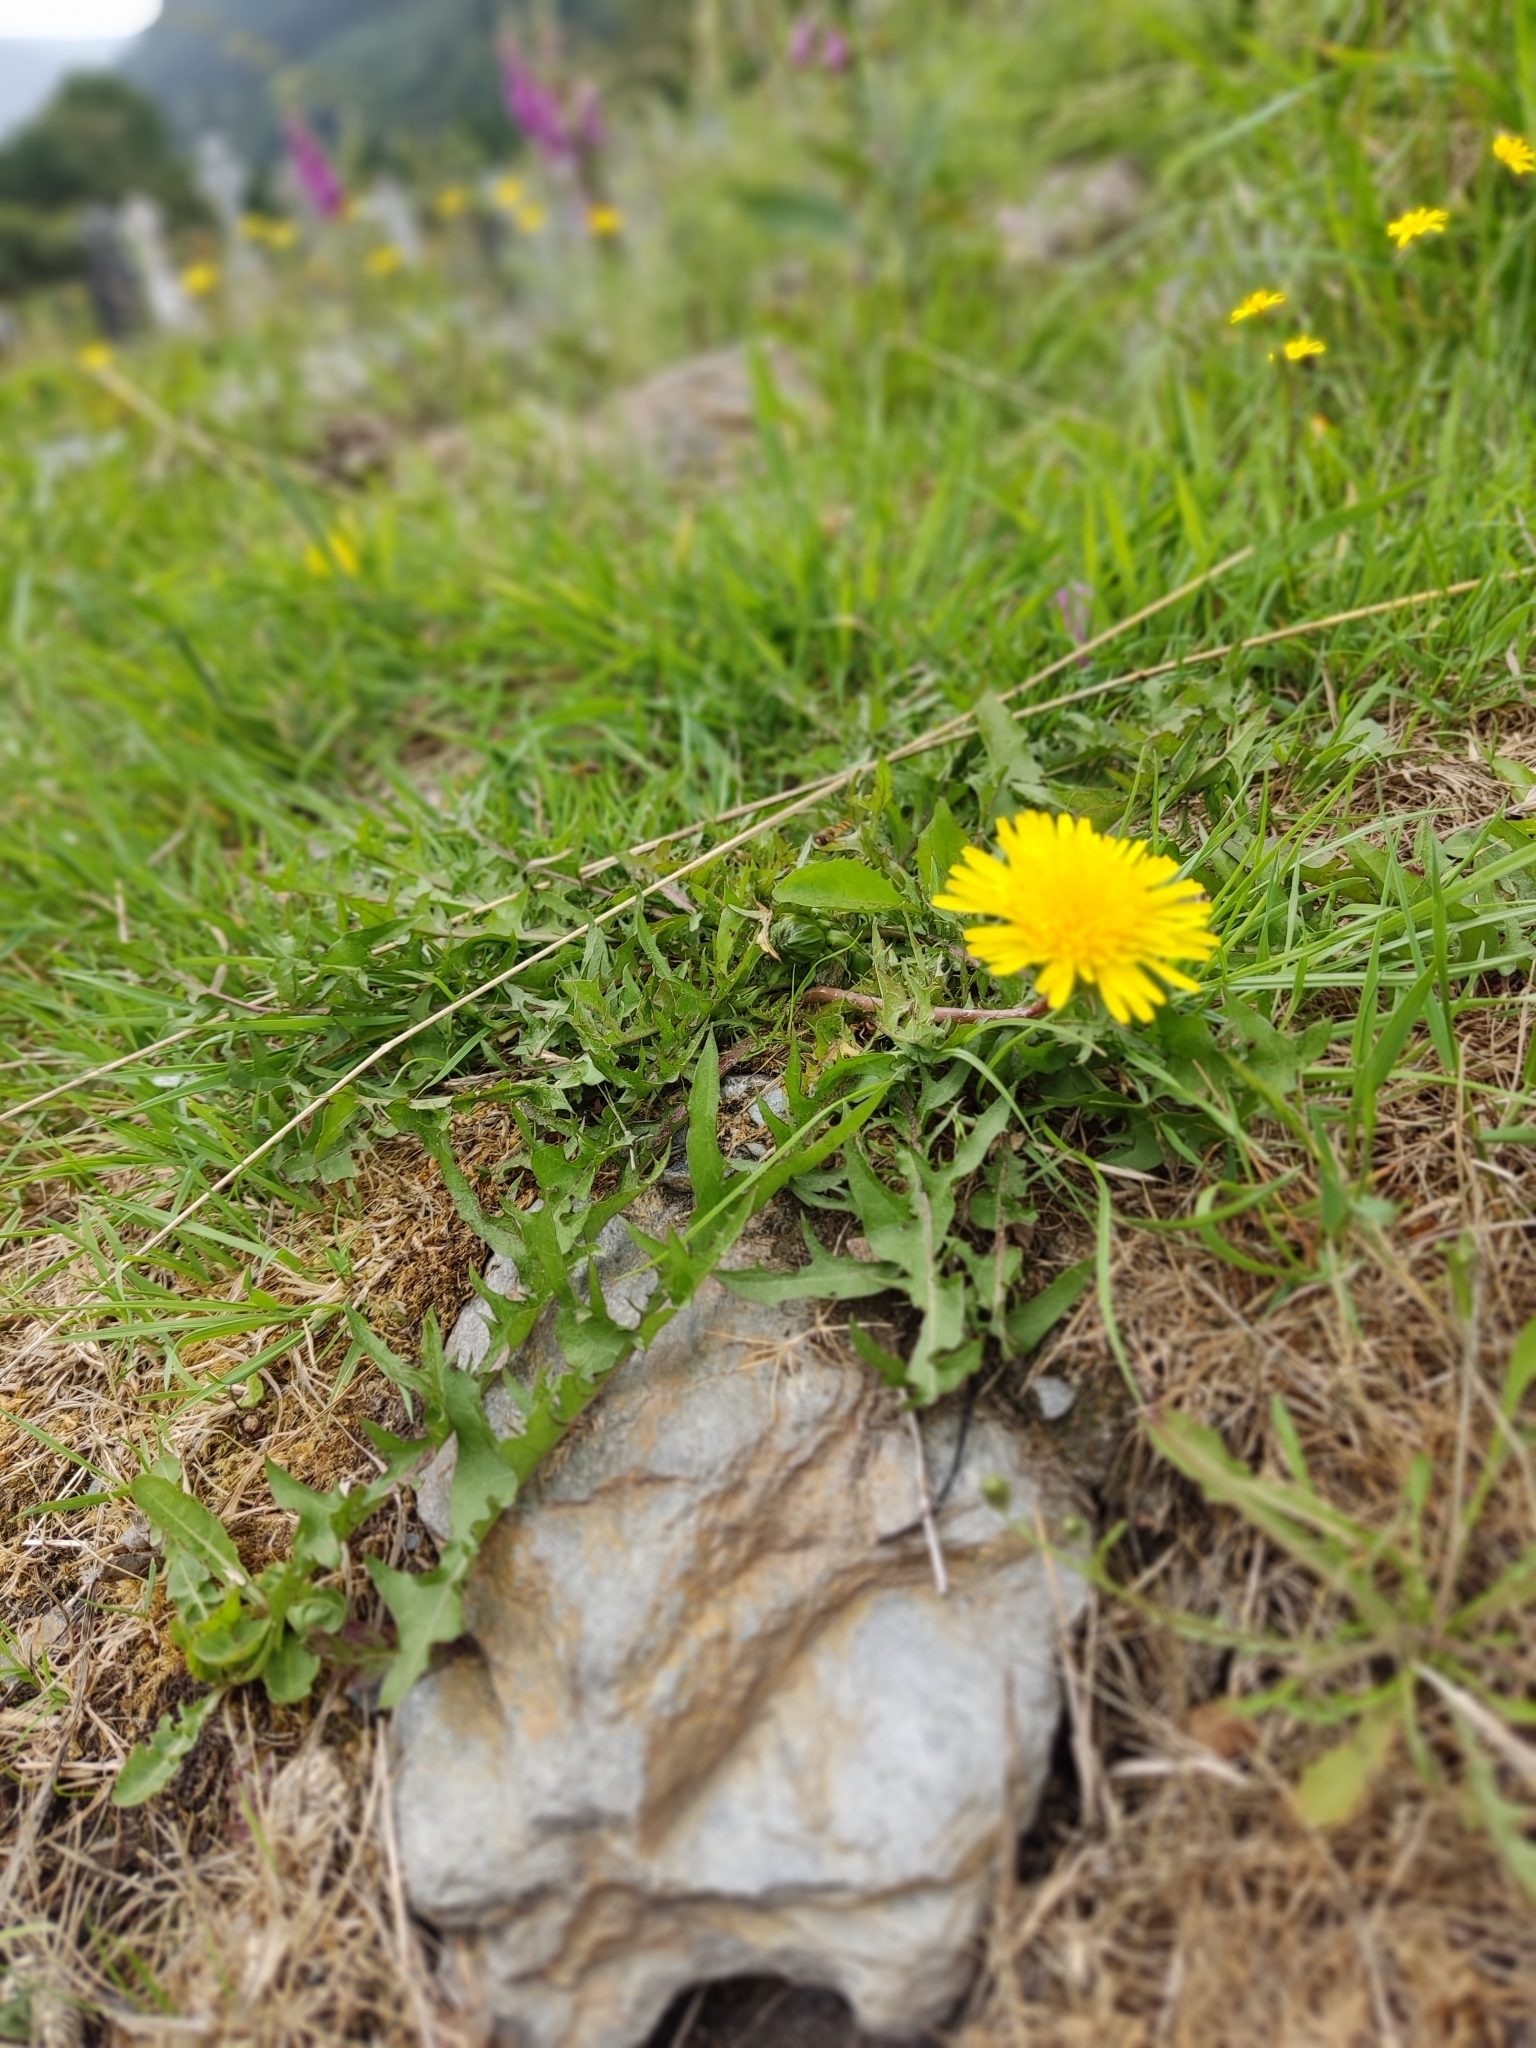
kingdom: Plantae
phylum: Tracheophyta
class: Magnoliopsida
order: Asterales
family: Asteraceae
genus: Taraxacum
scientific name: Taraxacum officinale
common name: Common dandelion
